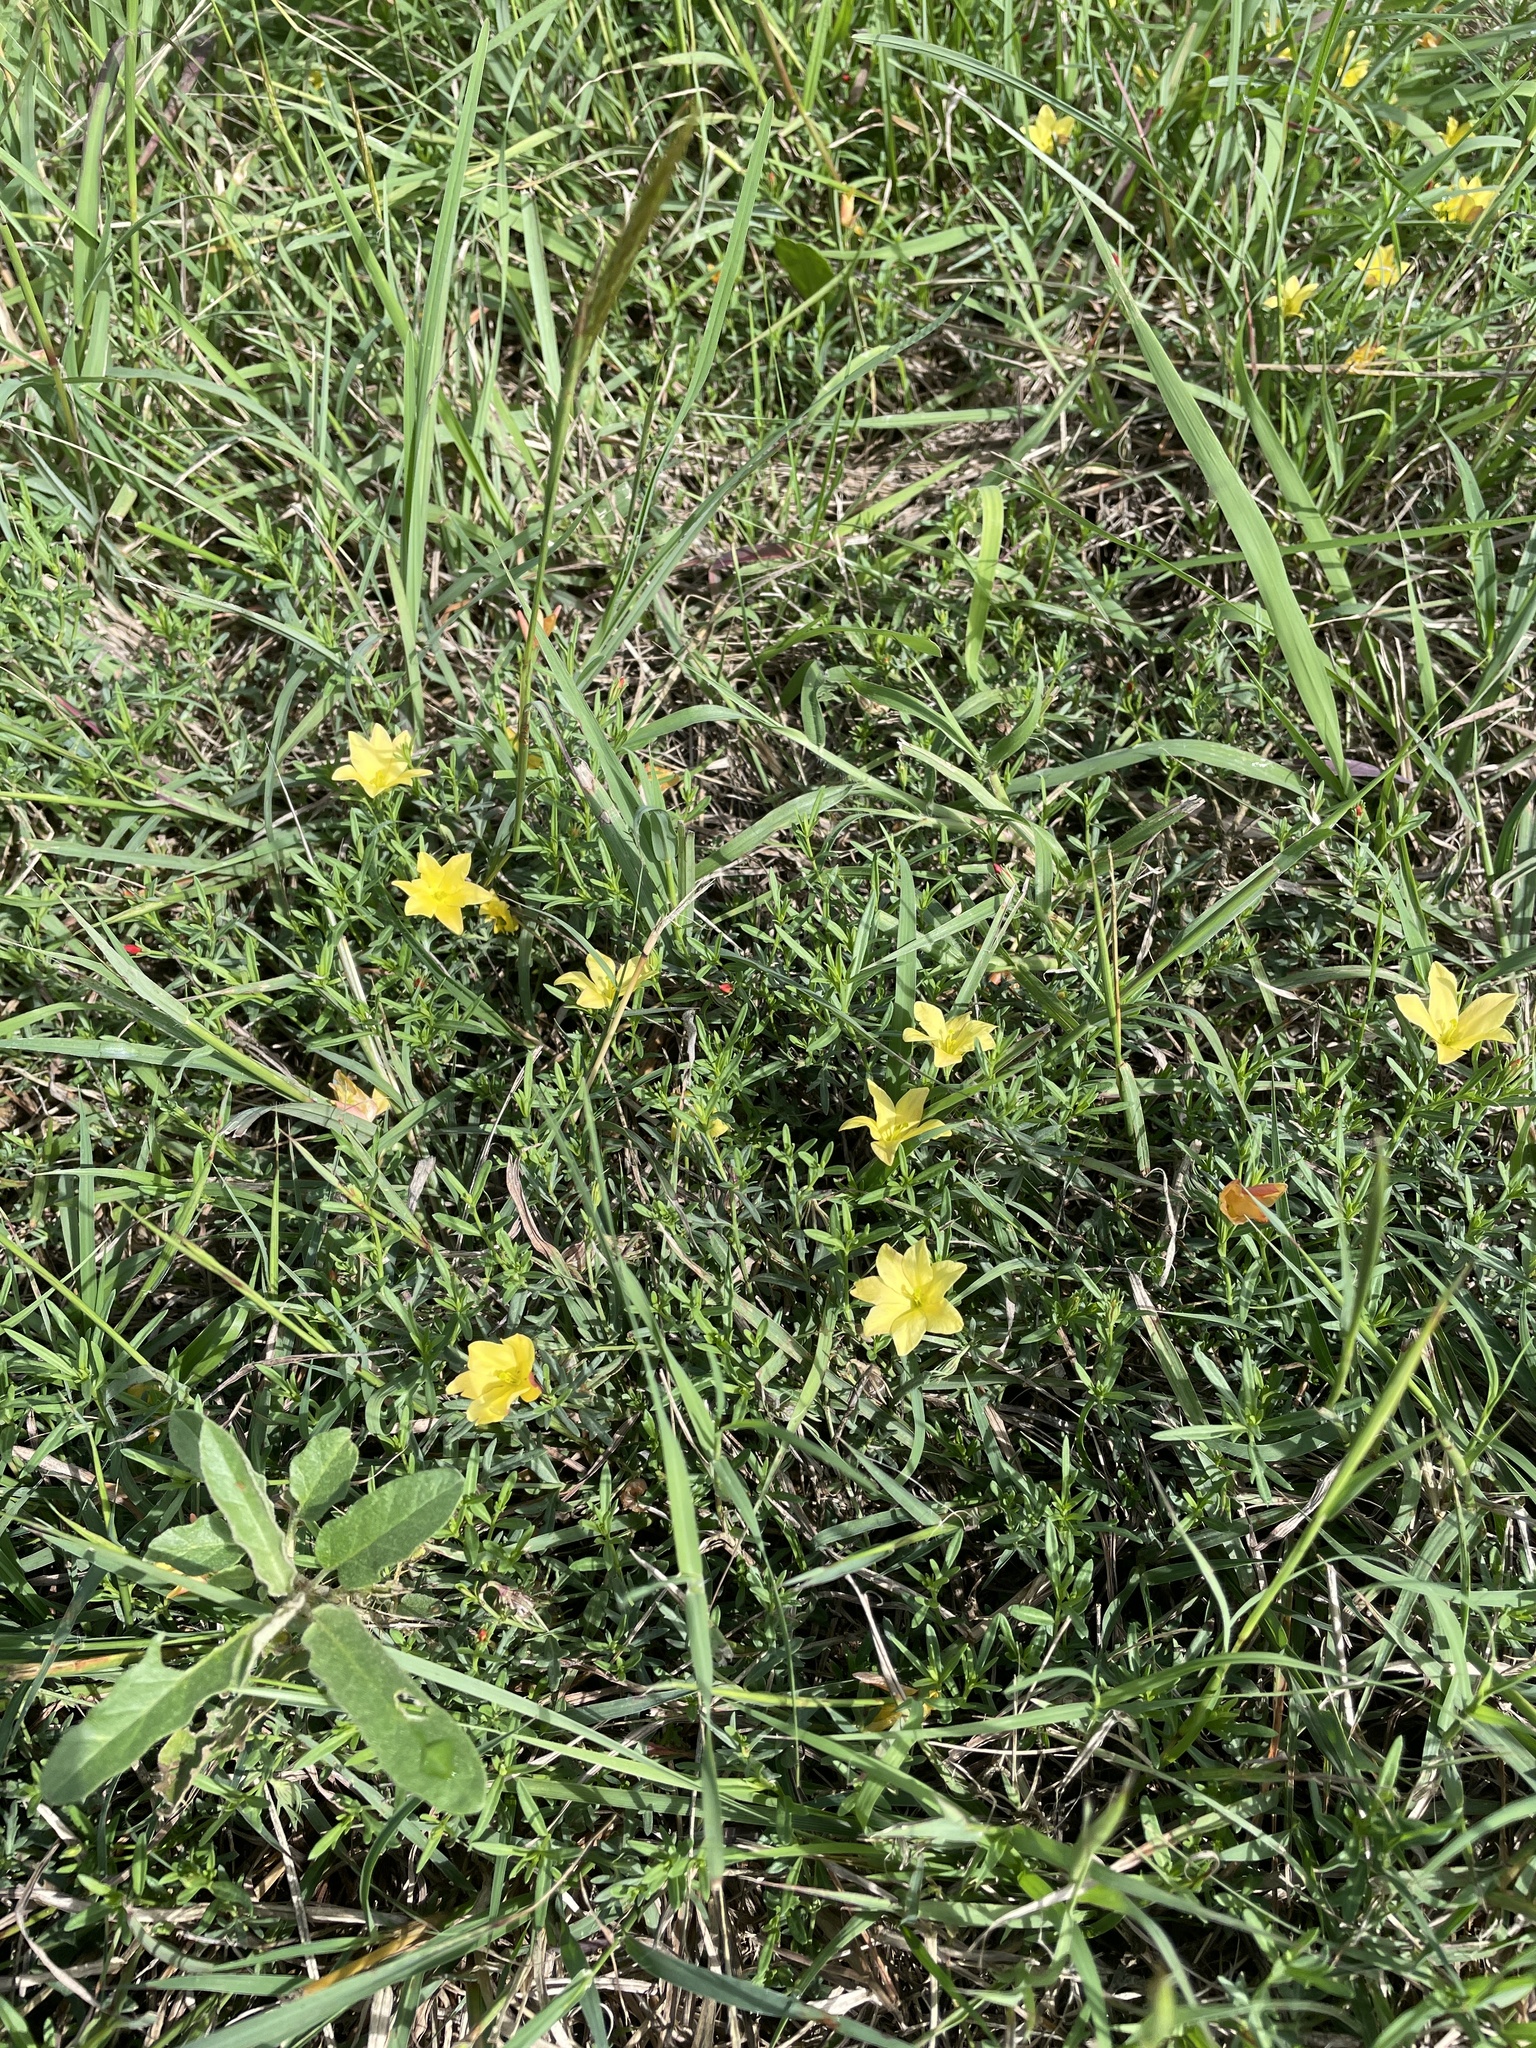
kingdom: Plantae
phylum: Tracheophyta
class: Magnoliopsida
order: Lamiales
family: Oleaceae
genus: Menodora
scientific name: Menodora heterophylla
